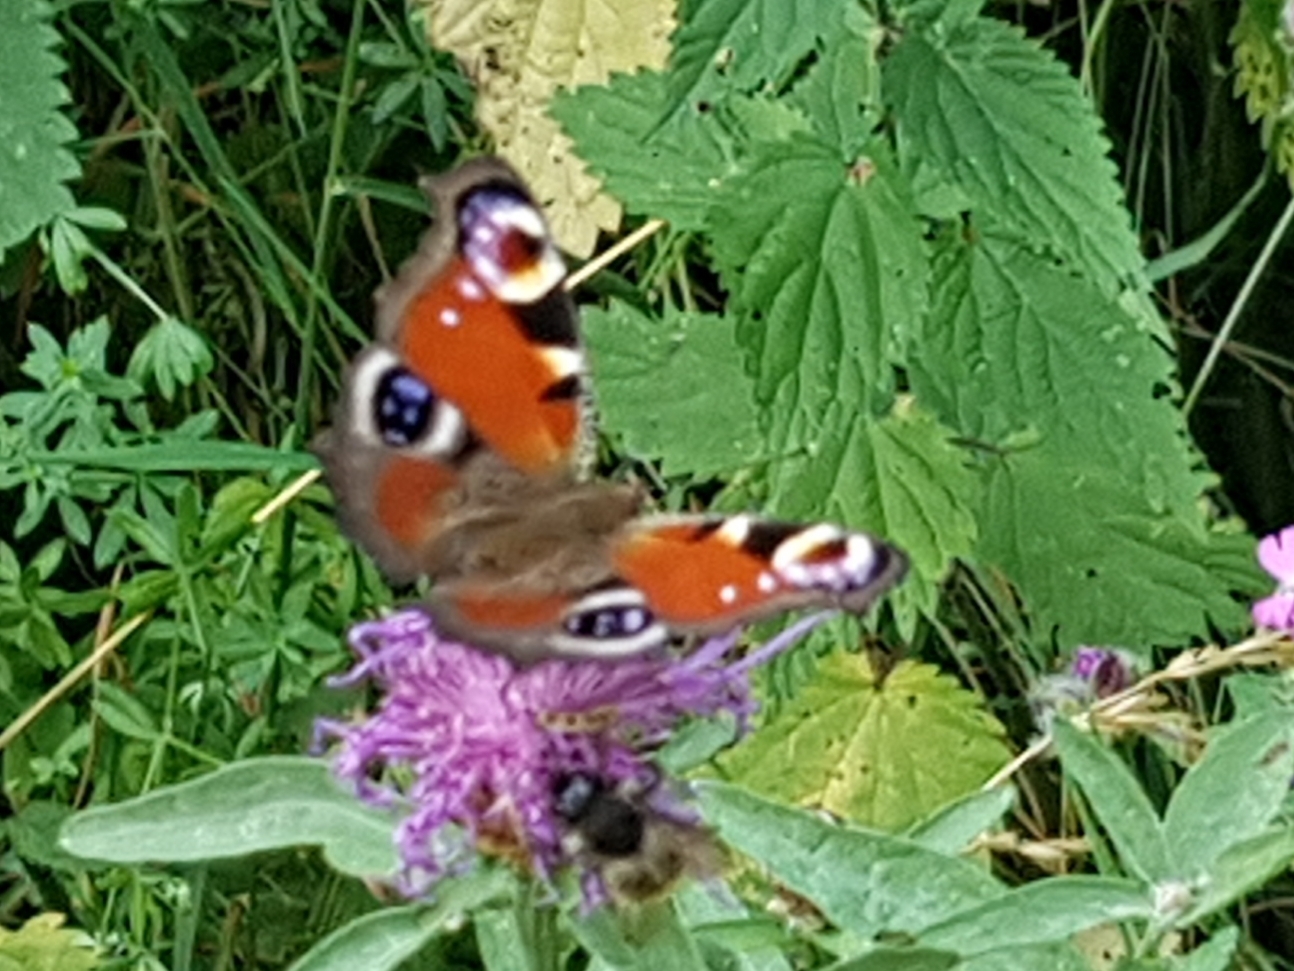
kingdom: Animalia
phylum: Arthropoda
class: Insecta
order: Lepidoptera
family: Nymphalidae
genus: Aglais
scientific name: Aglais io
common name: Peacock
